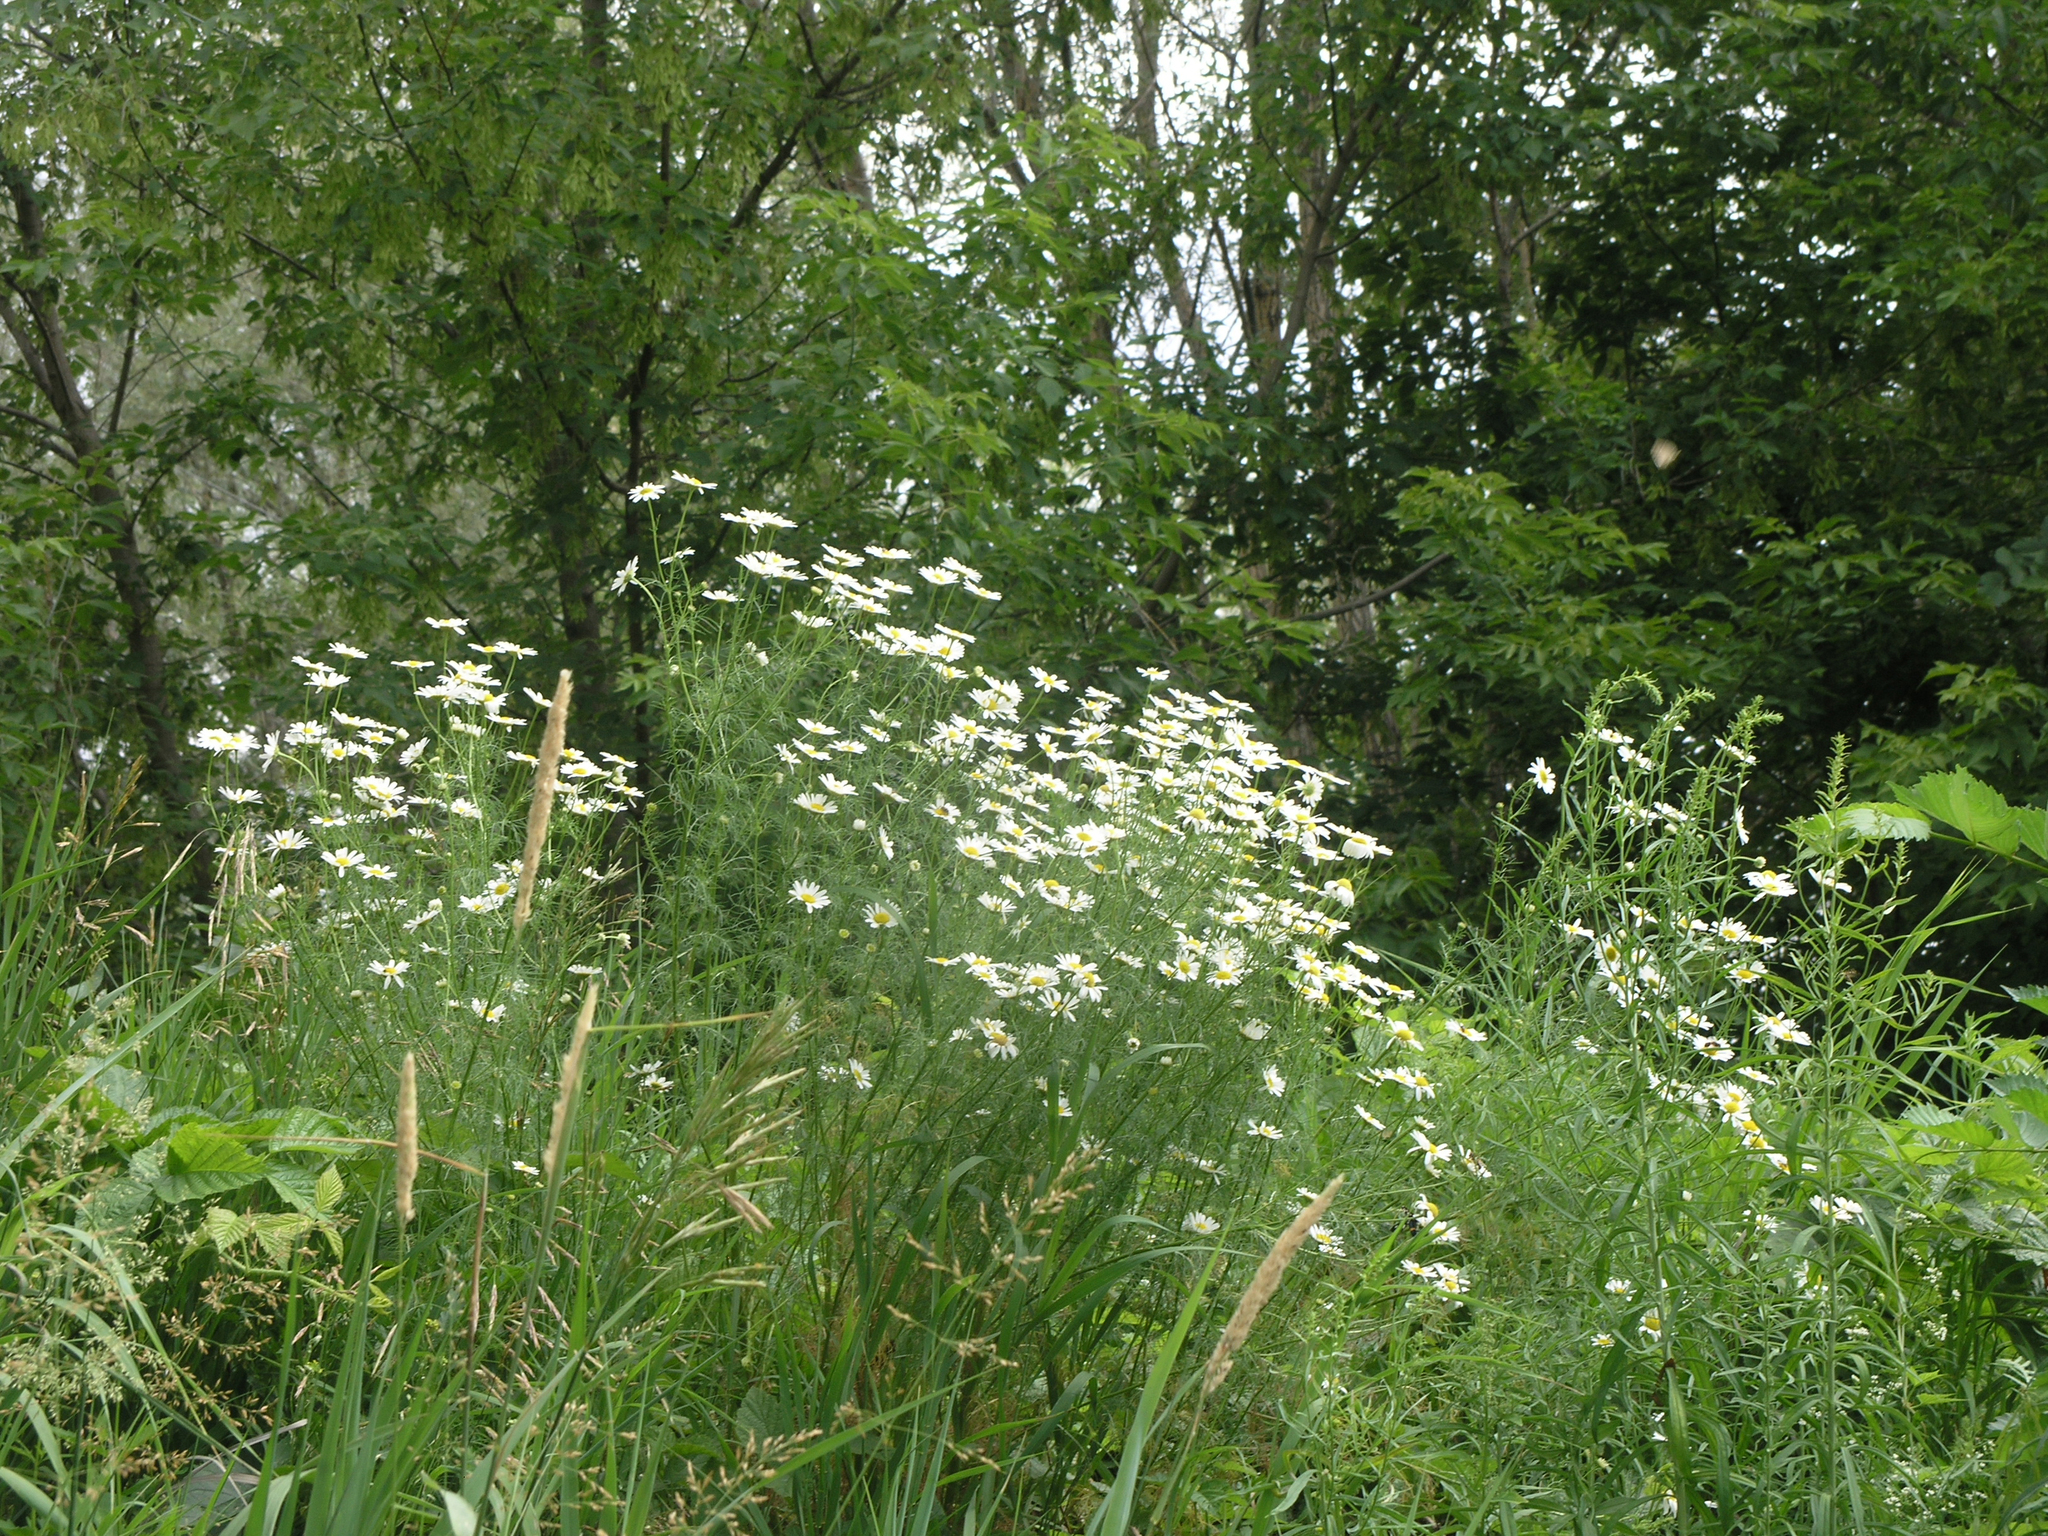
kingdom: Plantae
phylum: Tracheophyta
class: Magnoliopsida
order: Asterales
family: Asteraceae
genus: Tripleurospermum
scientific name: Tripleurospermum inodorum
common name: Scentless mayweed
